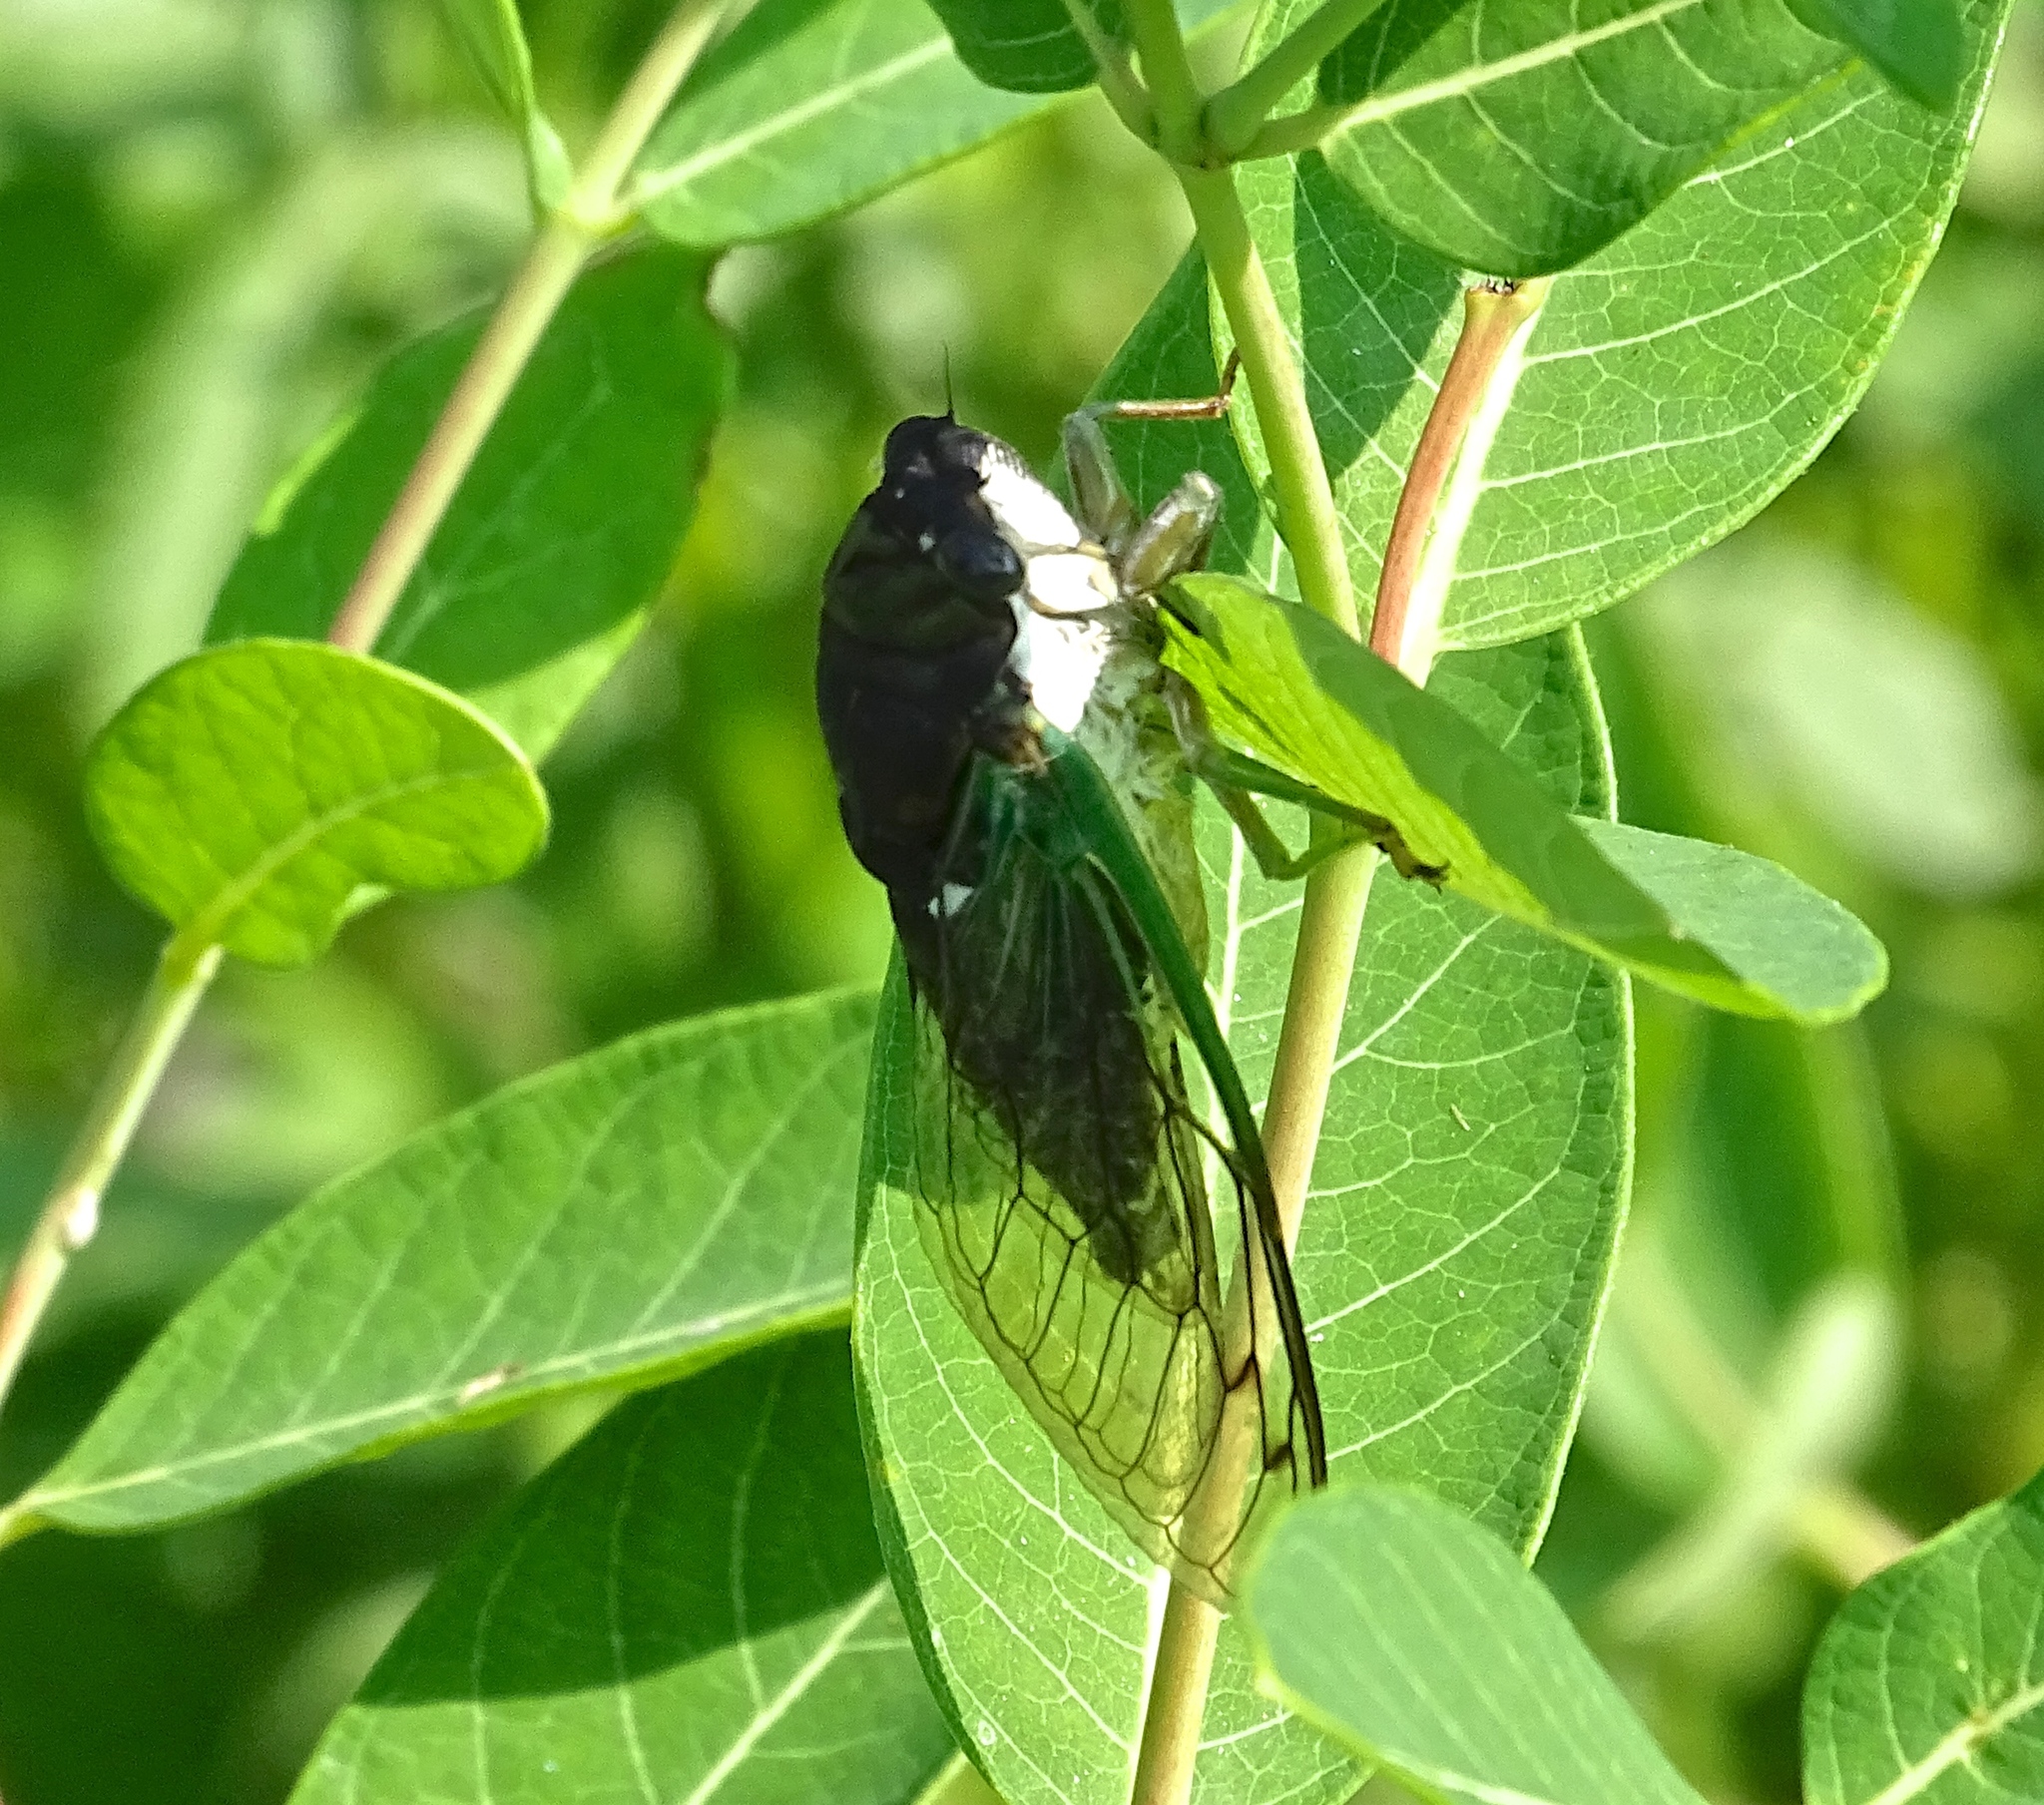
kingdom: Animalia
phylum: Arthropoda
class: Insecta
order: Hemiptera
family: Cicadidae
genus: Neotibicen
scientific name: Neotibicen tibicen
